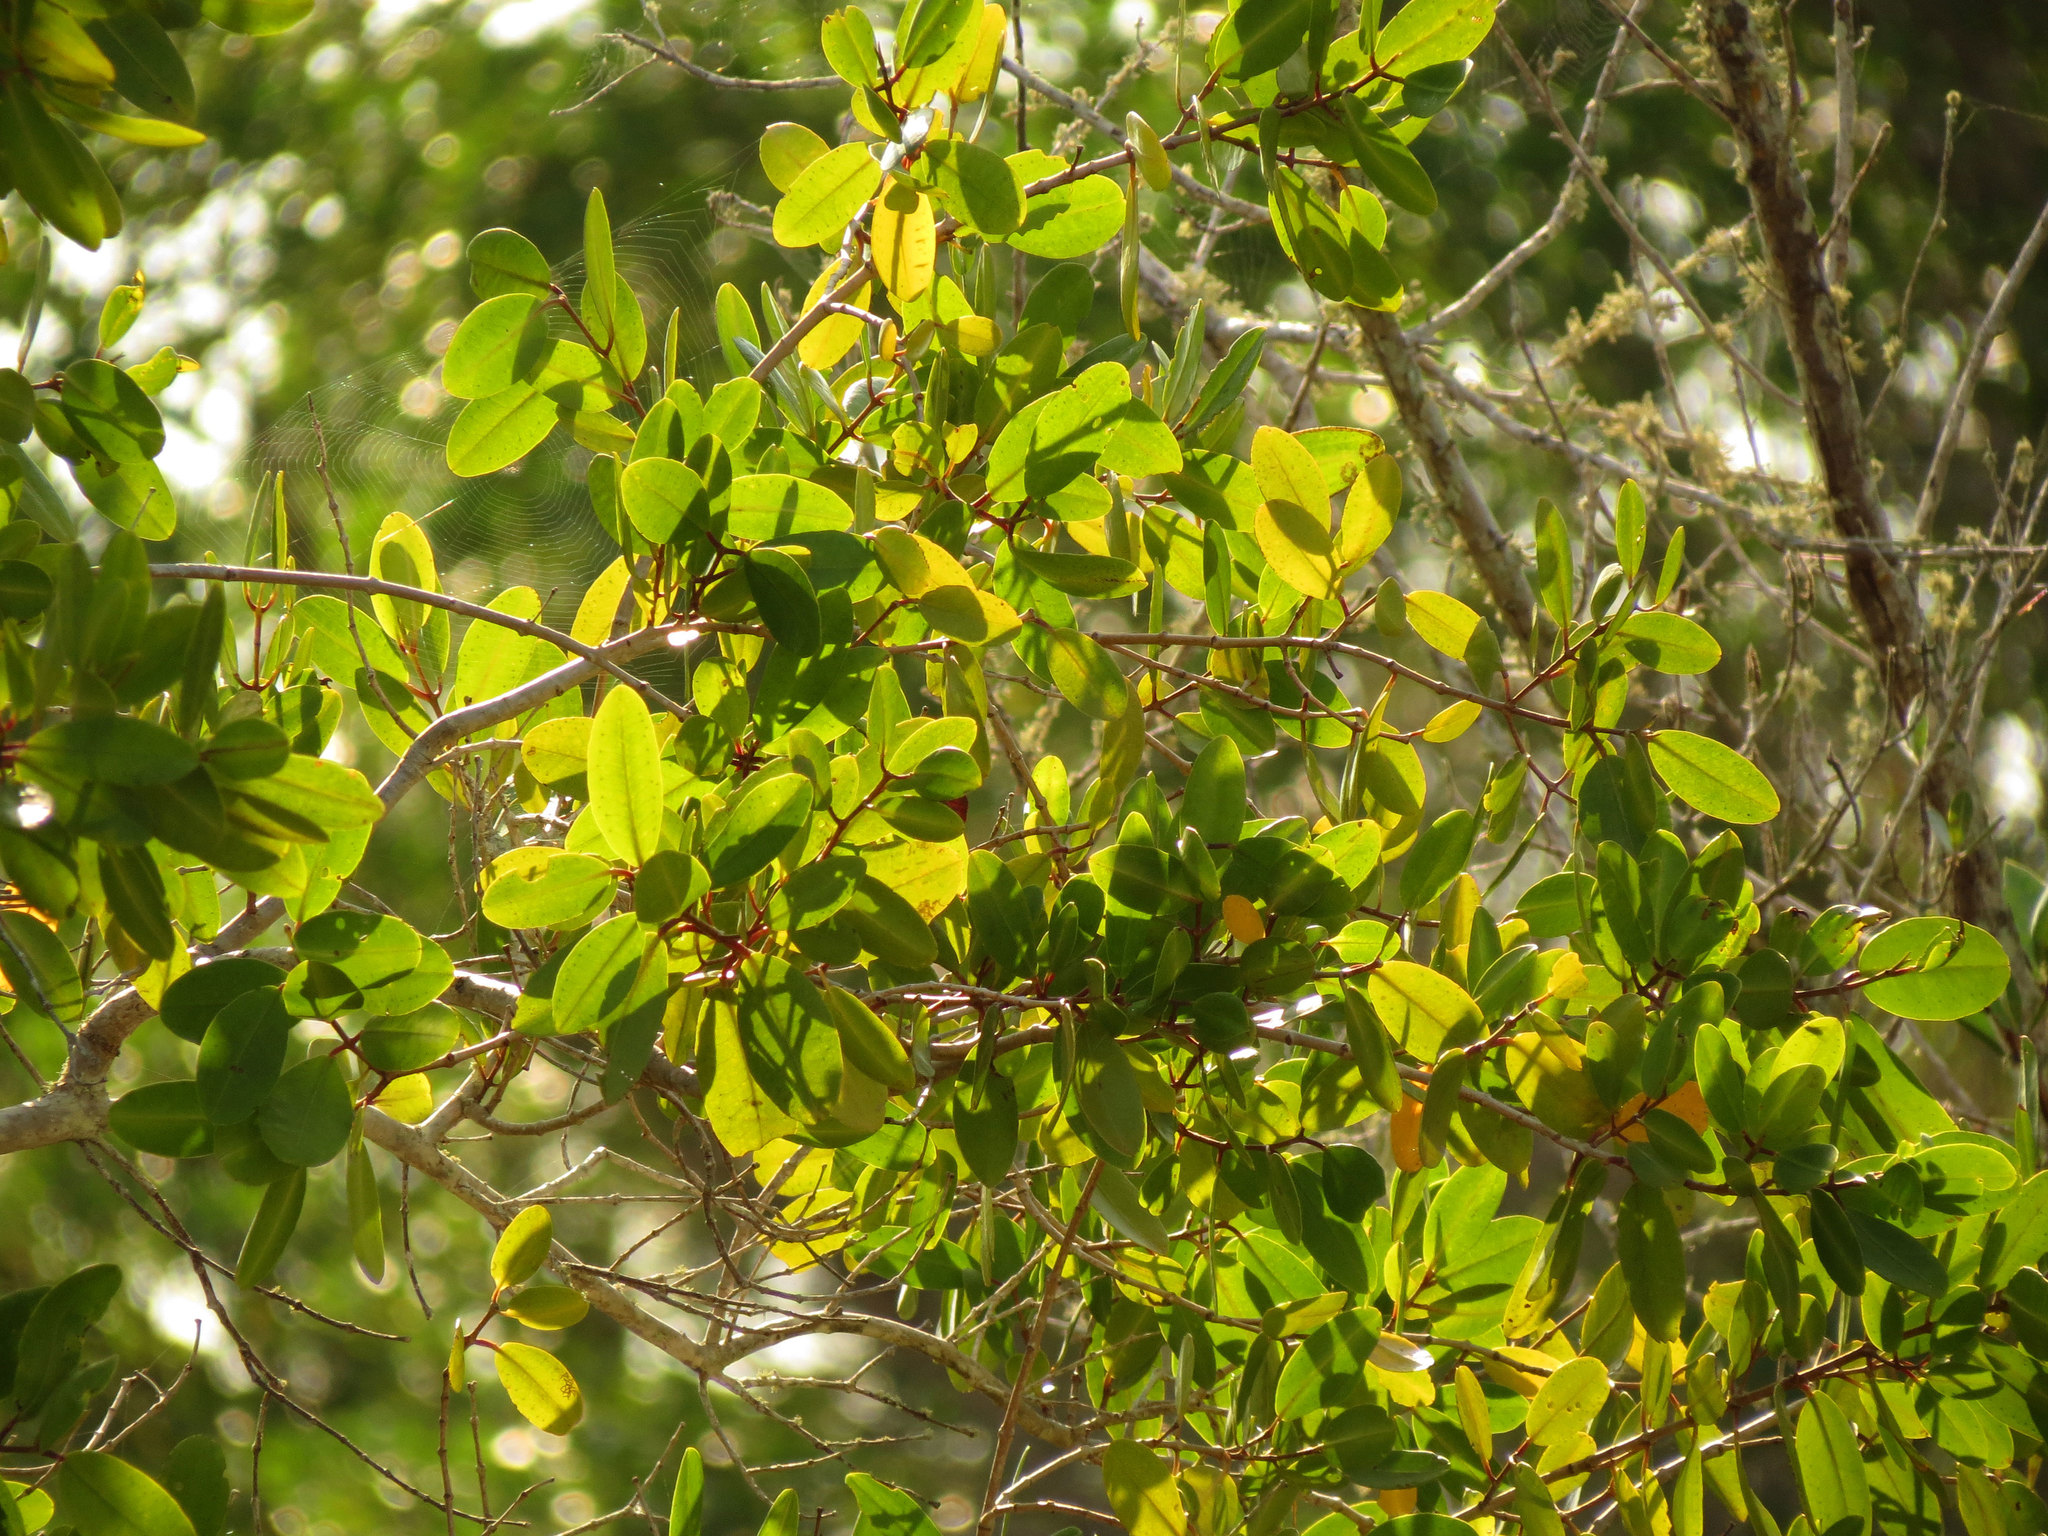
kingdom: Plantae
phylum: Tracheophyta
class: Magnoliopsida
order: Myrtales
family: Combretaceae
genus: Laguncularia
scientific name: Laguncularia racemosa
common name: White mangrove
